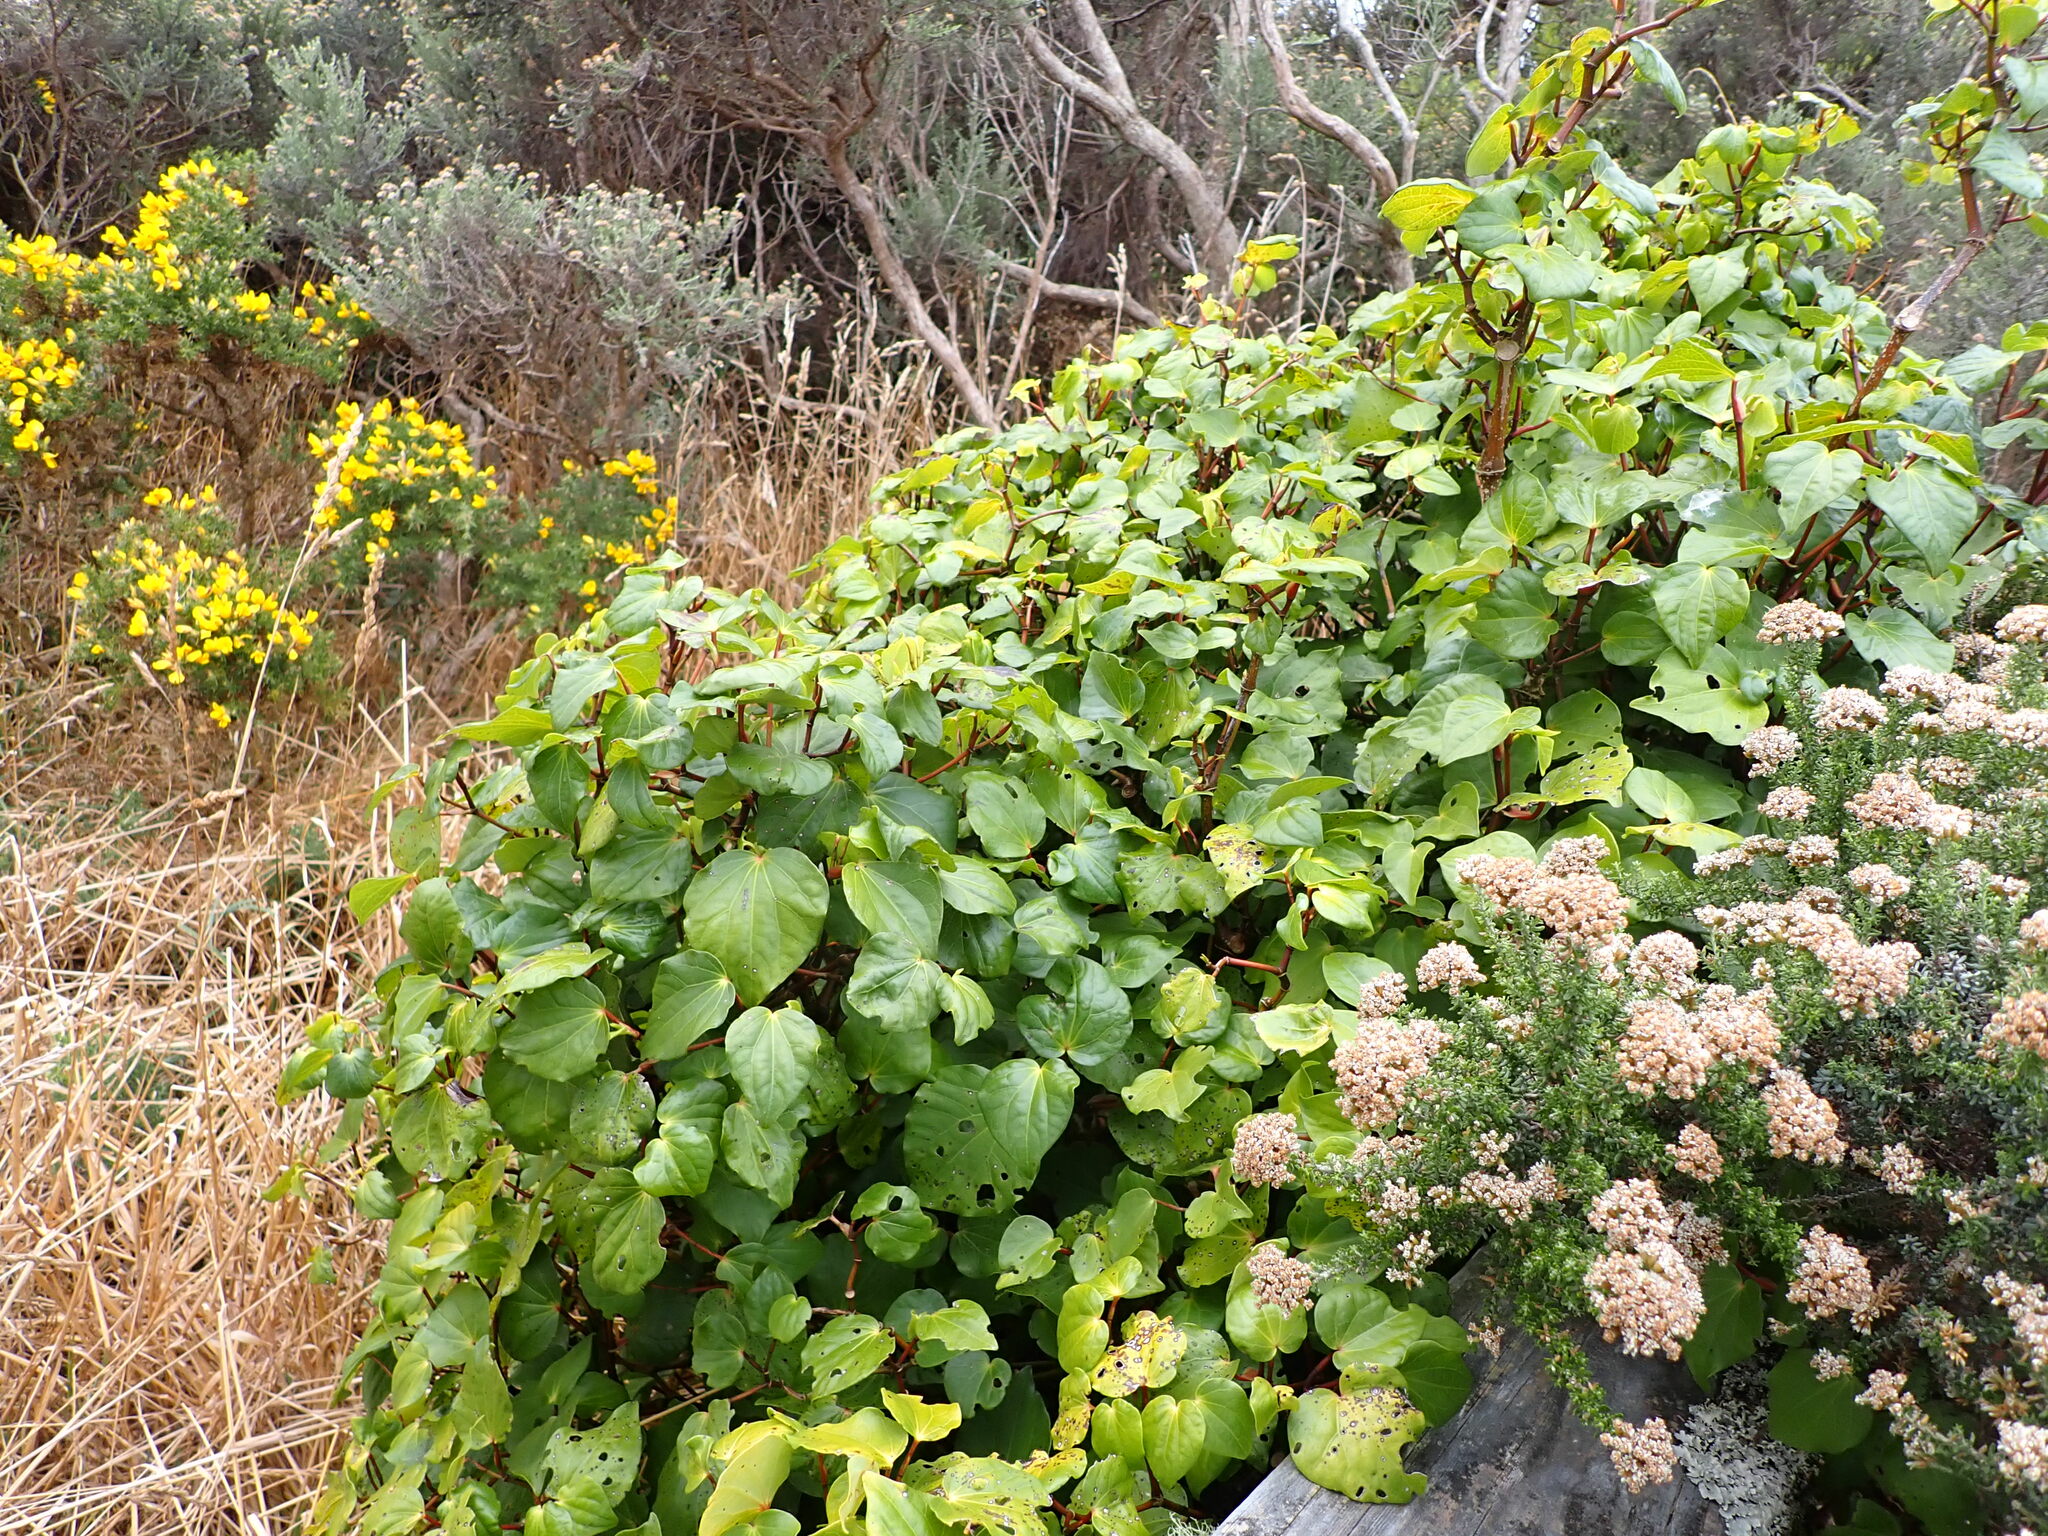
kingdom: Plantae
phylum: Tracheophyta
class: Magnoliopsida
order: Piperales
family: Piperaceae
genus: Macropiper
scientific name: Macropiper excelsum
